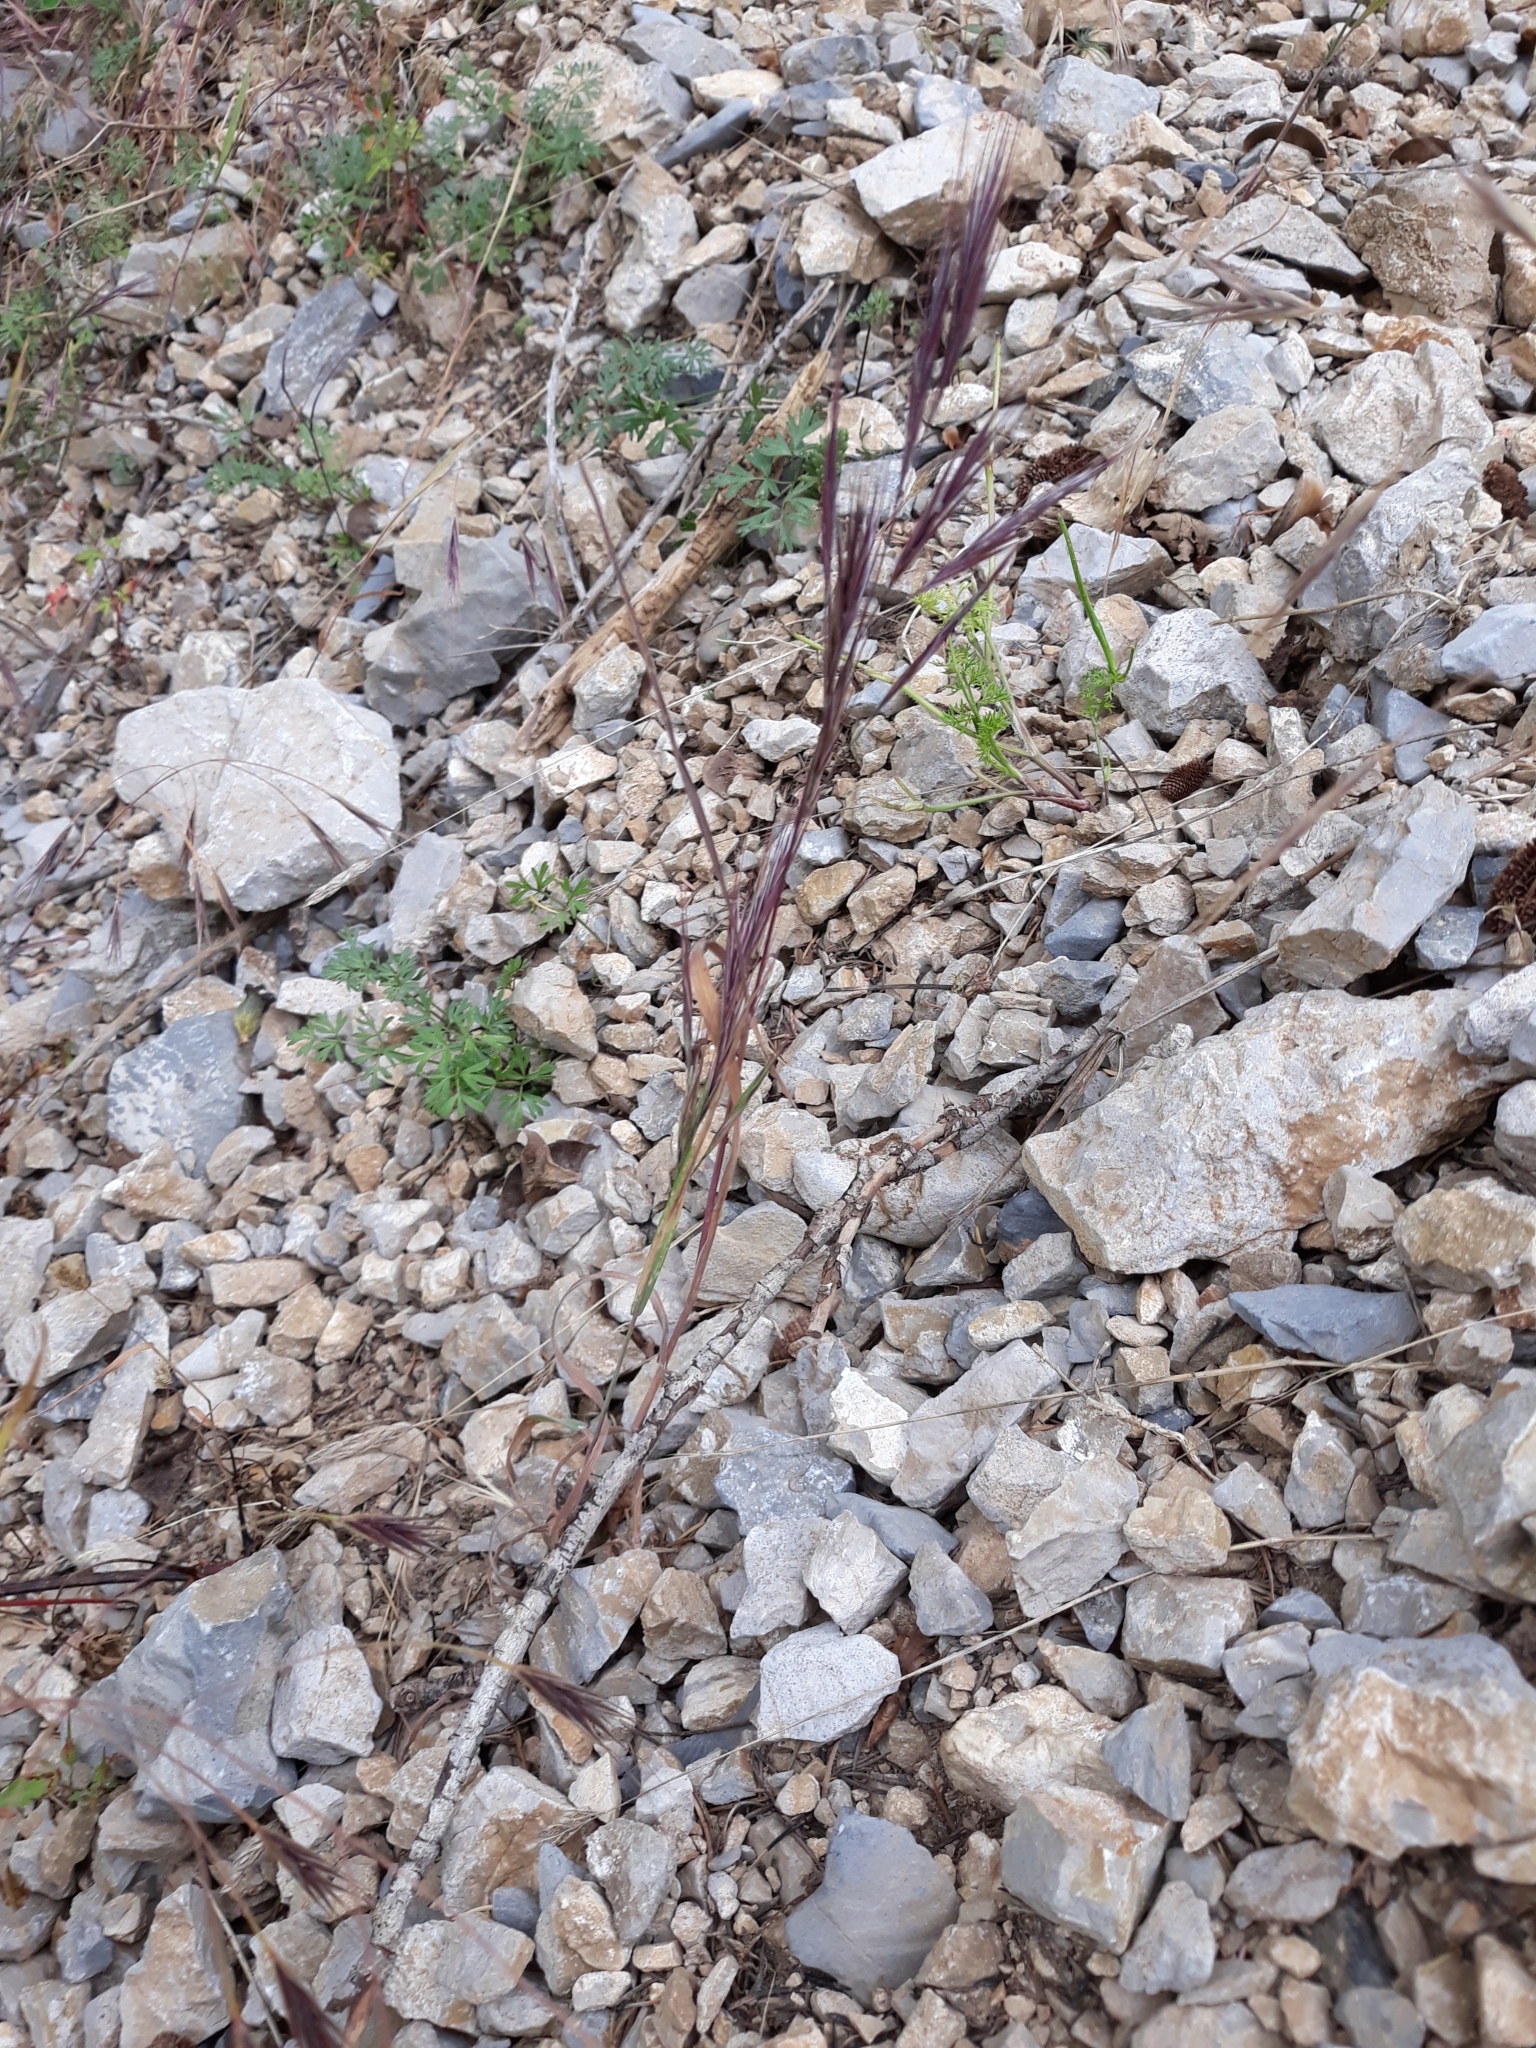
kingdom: Plantae
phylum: Tracheophyta
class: Liliopsida
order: Poales
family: Poaceae
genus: Bromus
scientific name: Bromus madritensis
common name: Compact brome
